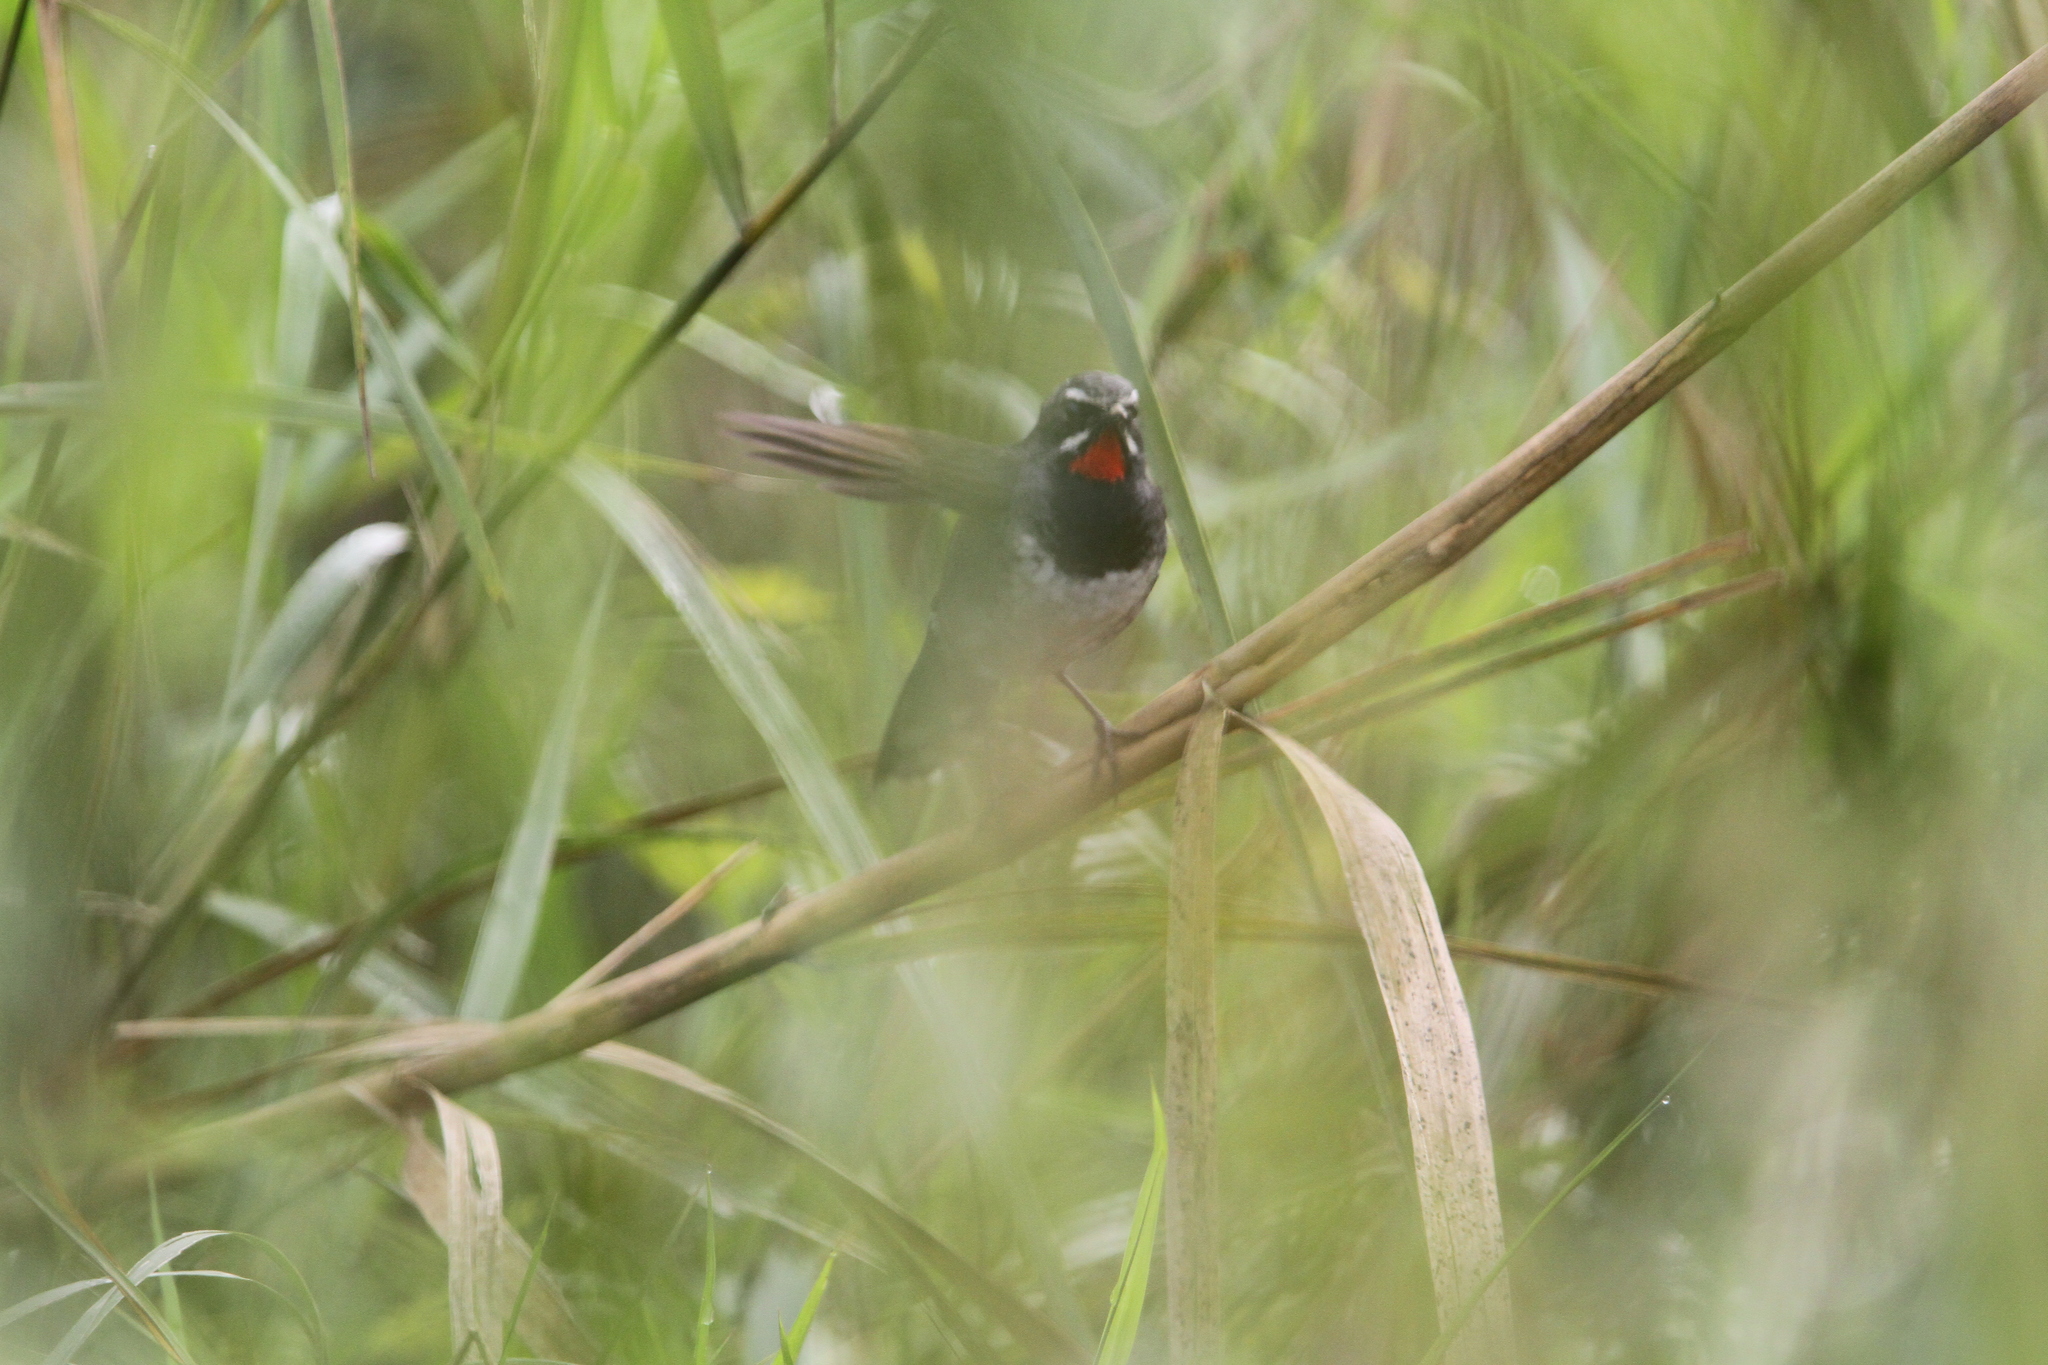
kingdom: Animalia
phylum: Chordata
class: Aves
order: Passeriformes
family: Muscicapidae
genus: Calliope
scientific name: Calliope tschebaiewi
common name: Chinese rubythroat
